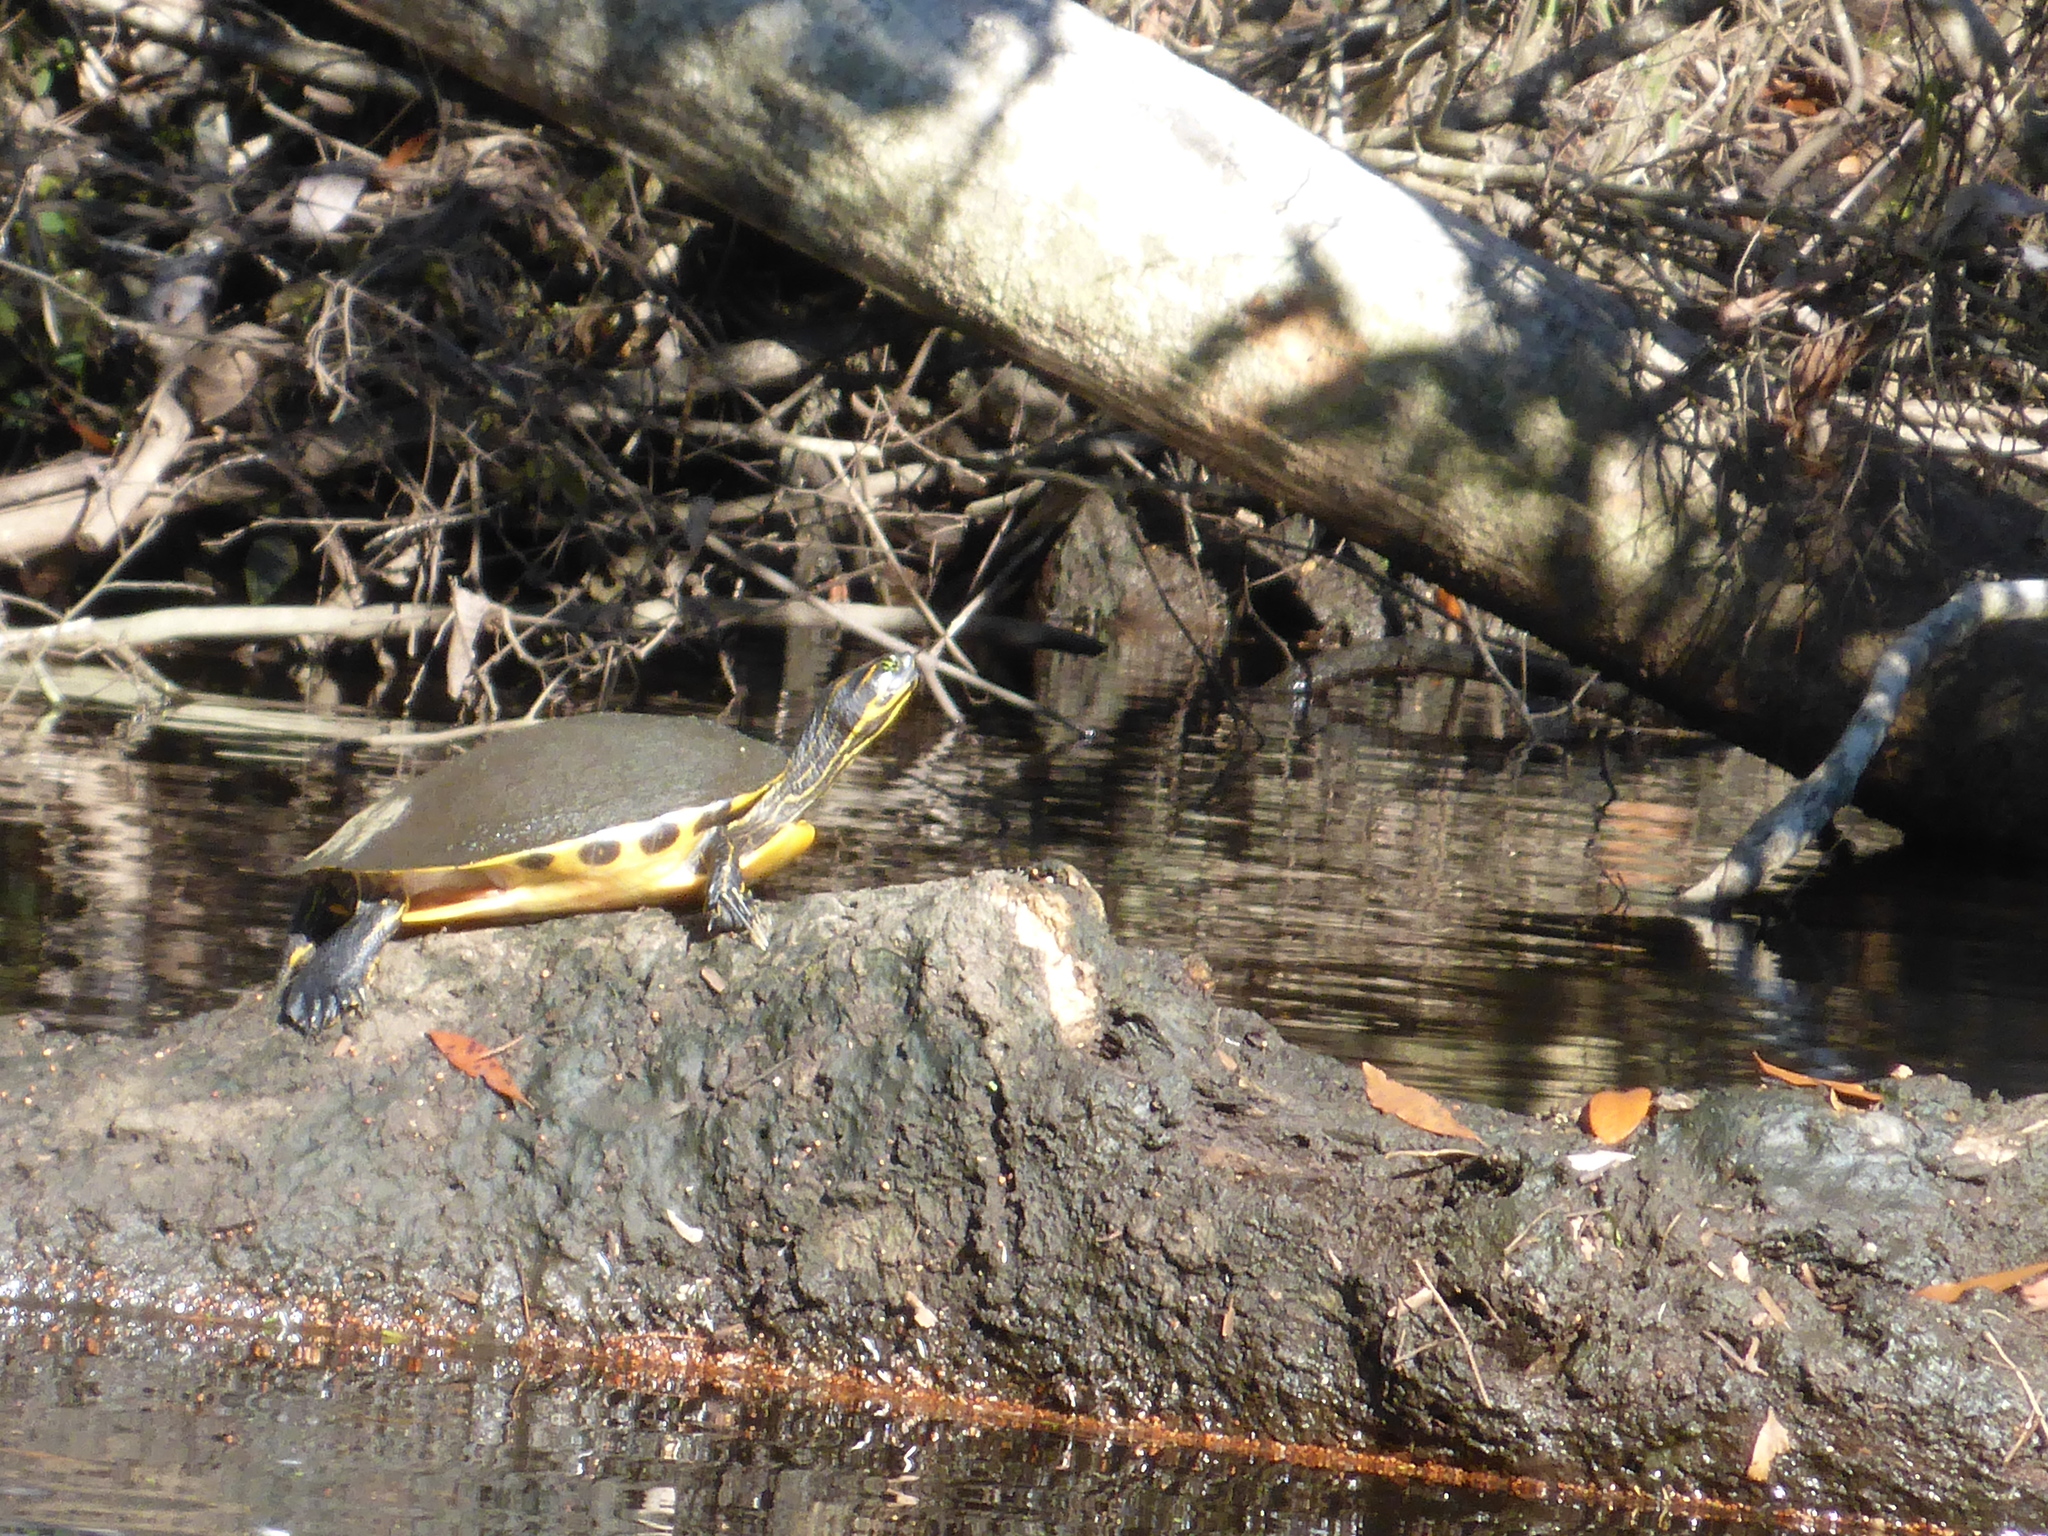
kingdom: Animalia
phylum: Chordata
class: Testudines
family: Emydidae
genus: Pseudemys
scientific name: Pseudemys concinna
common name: Eastern river cooter
